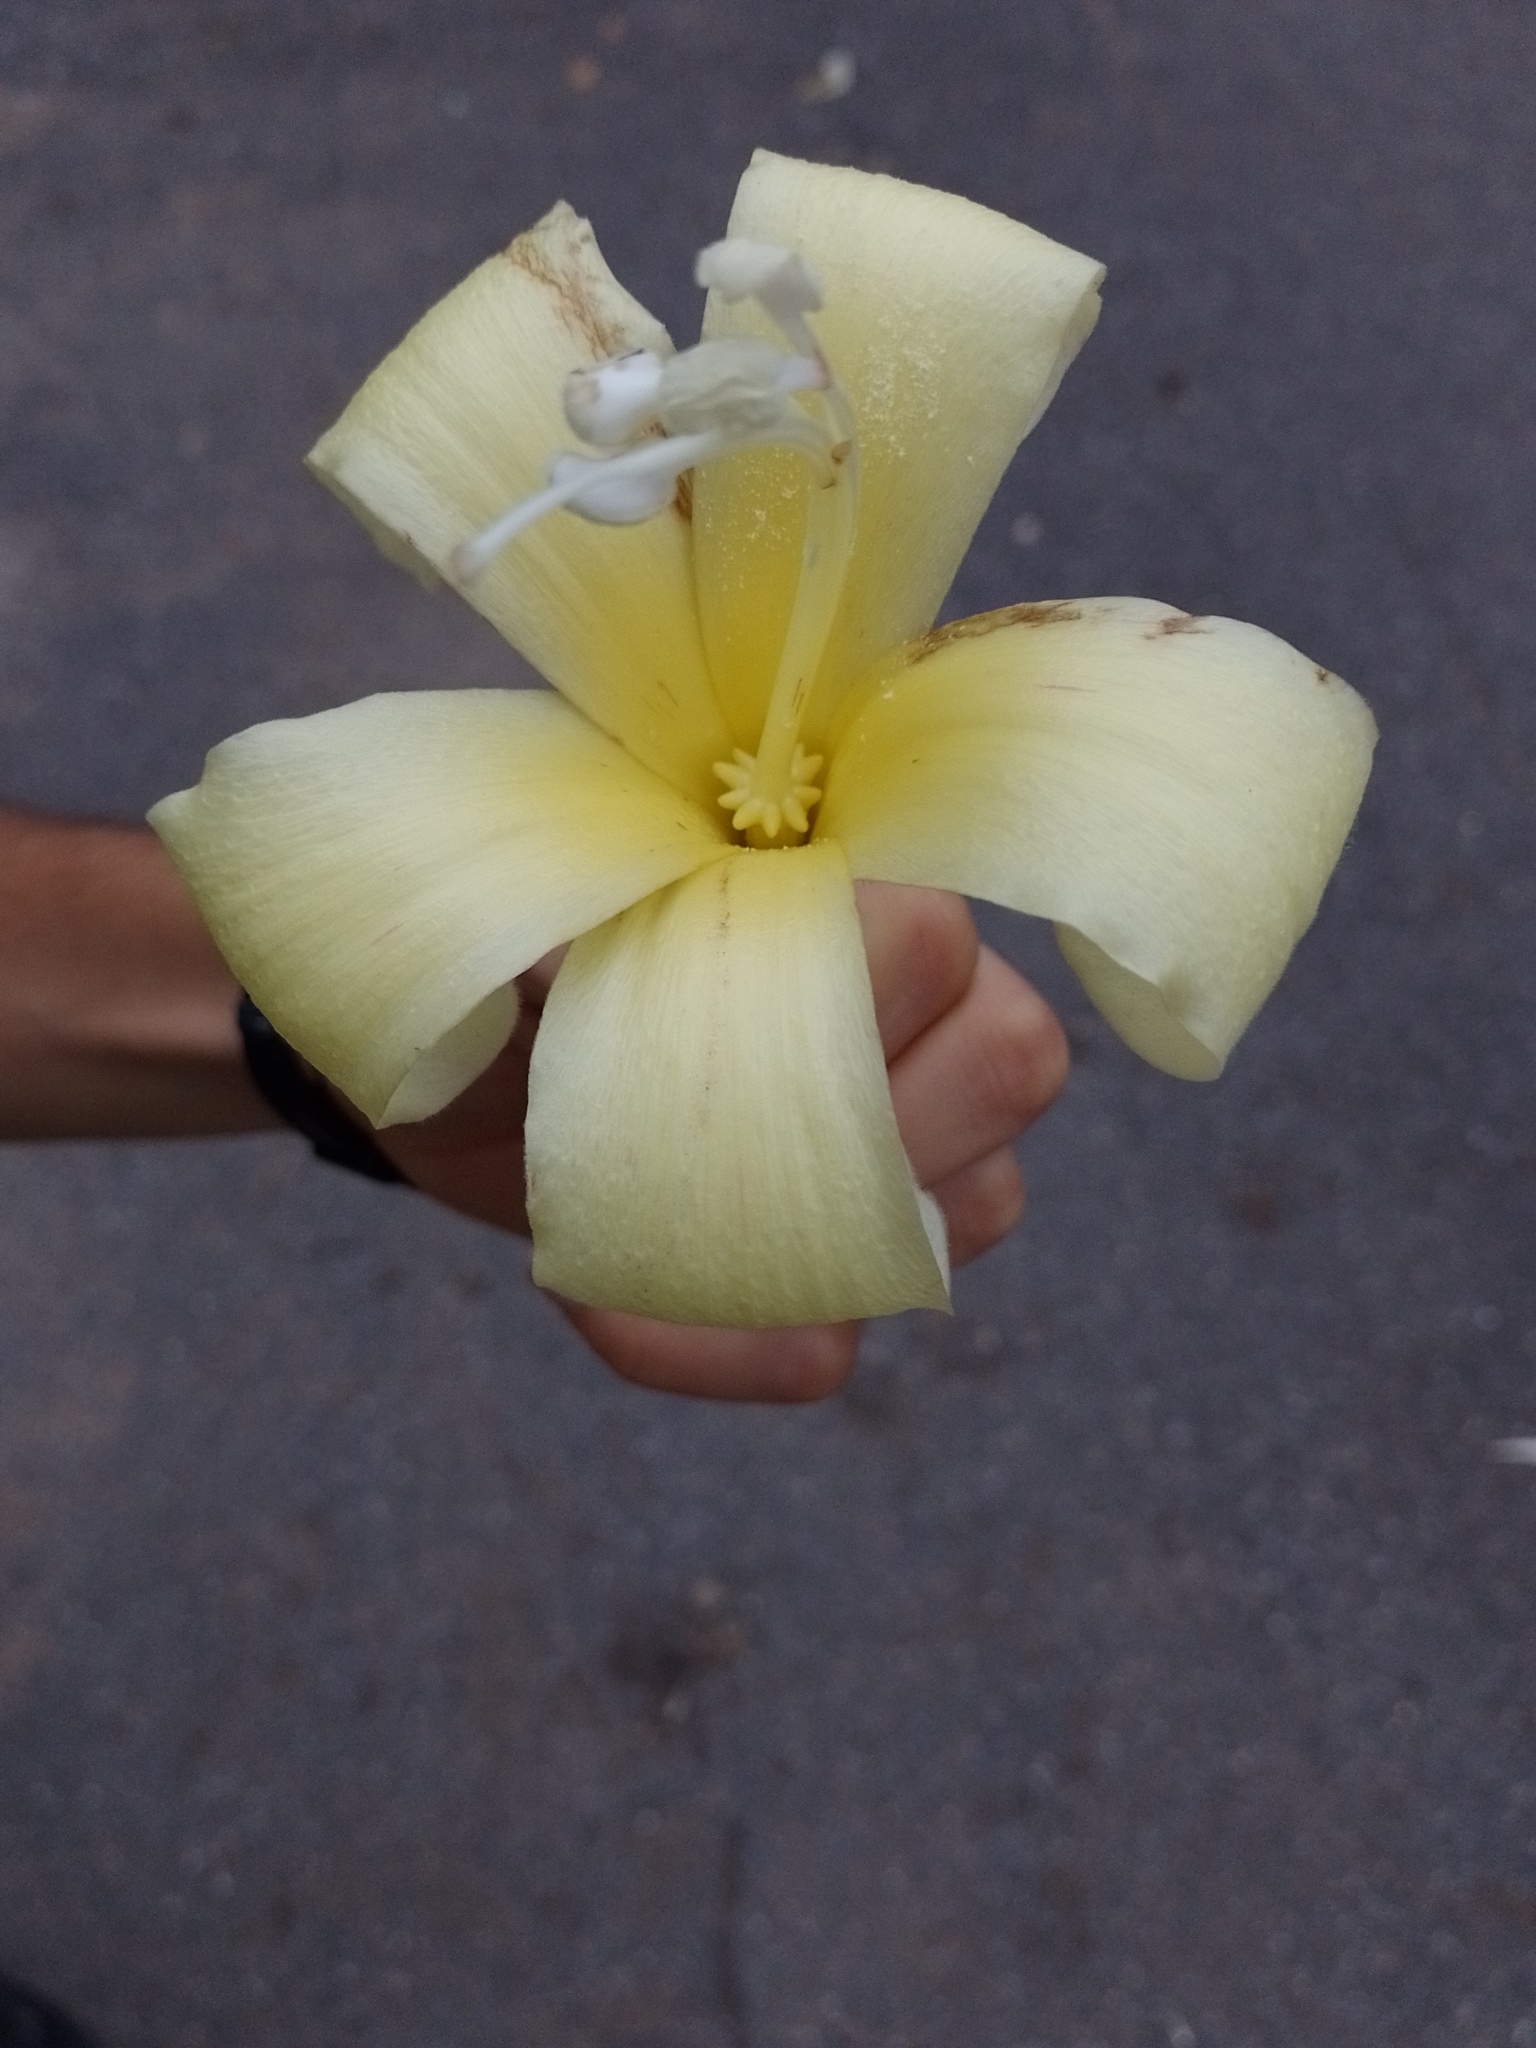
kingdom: Plantae
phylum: Tracheophyta
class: Magnoliopsida
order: Malvales
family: Malvaceae
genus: Ceiba
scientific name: Ceiba chodatii
